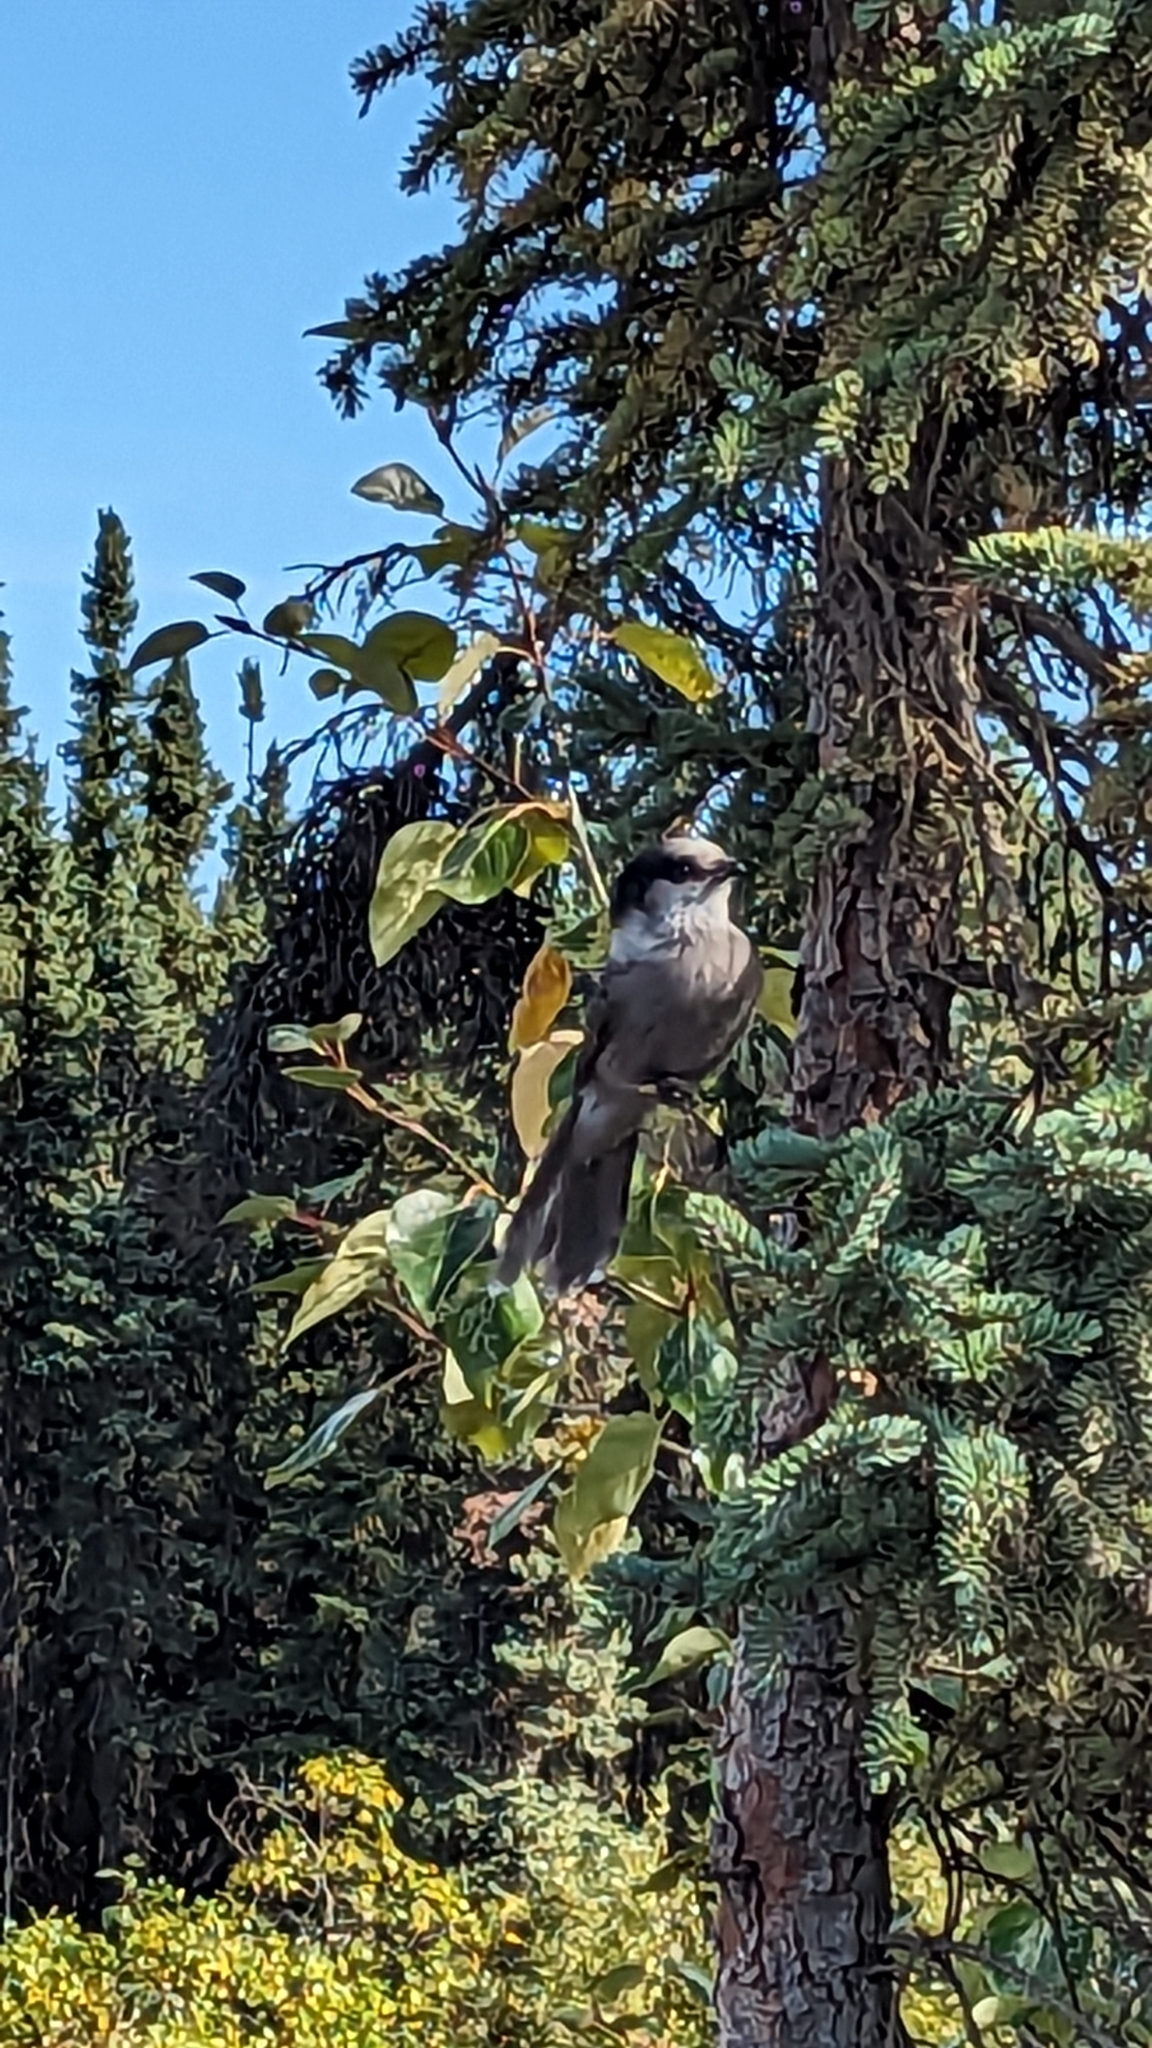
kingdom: Animalia
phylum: Chordata
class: Aves
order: Passeriformes
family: Corvidae
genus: Perisoreus
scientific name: Perisoreus canadensis
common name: Gray jay
